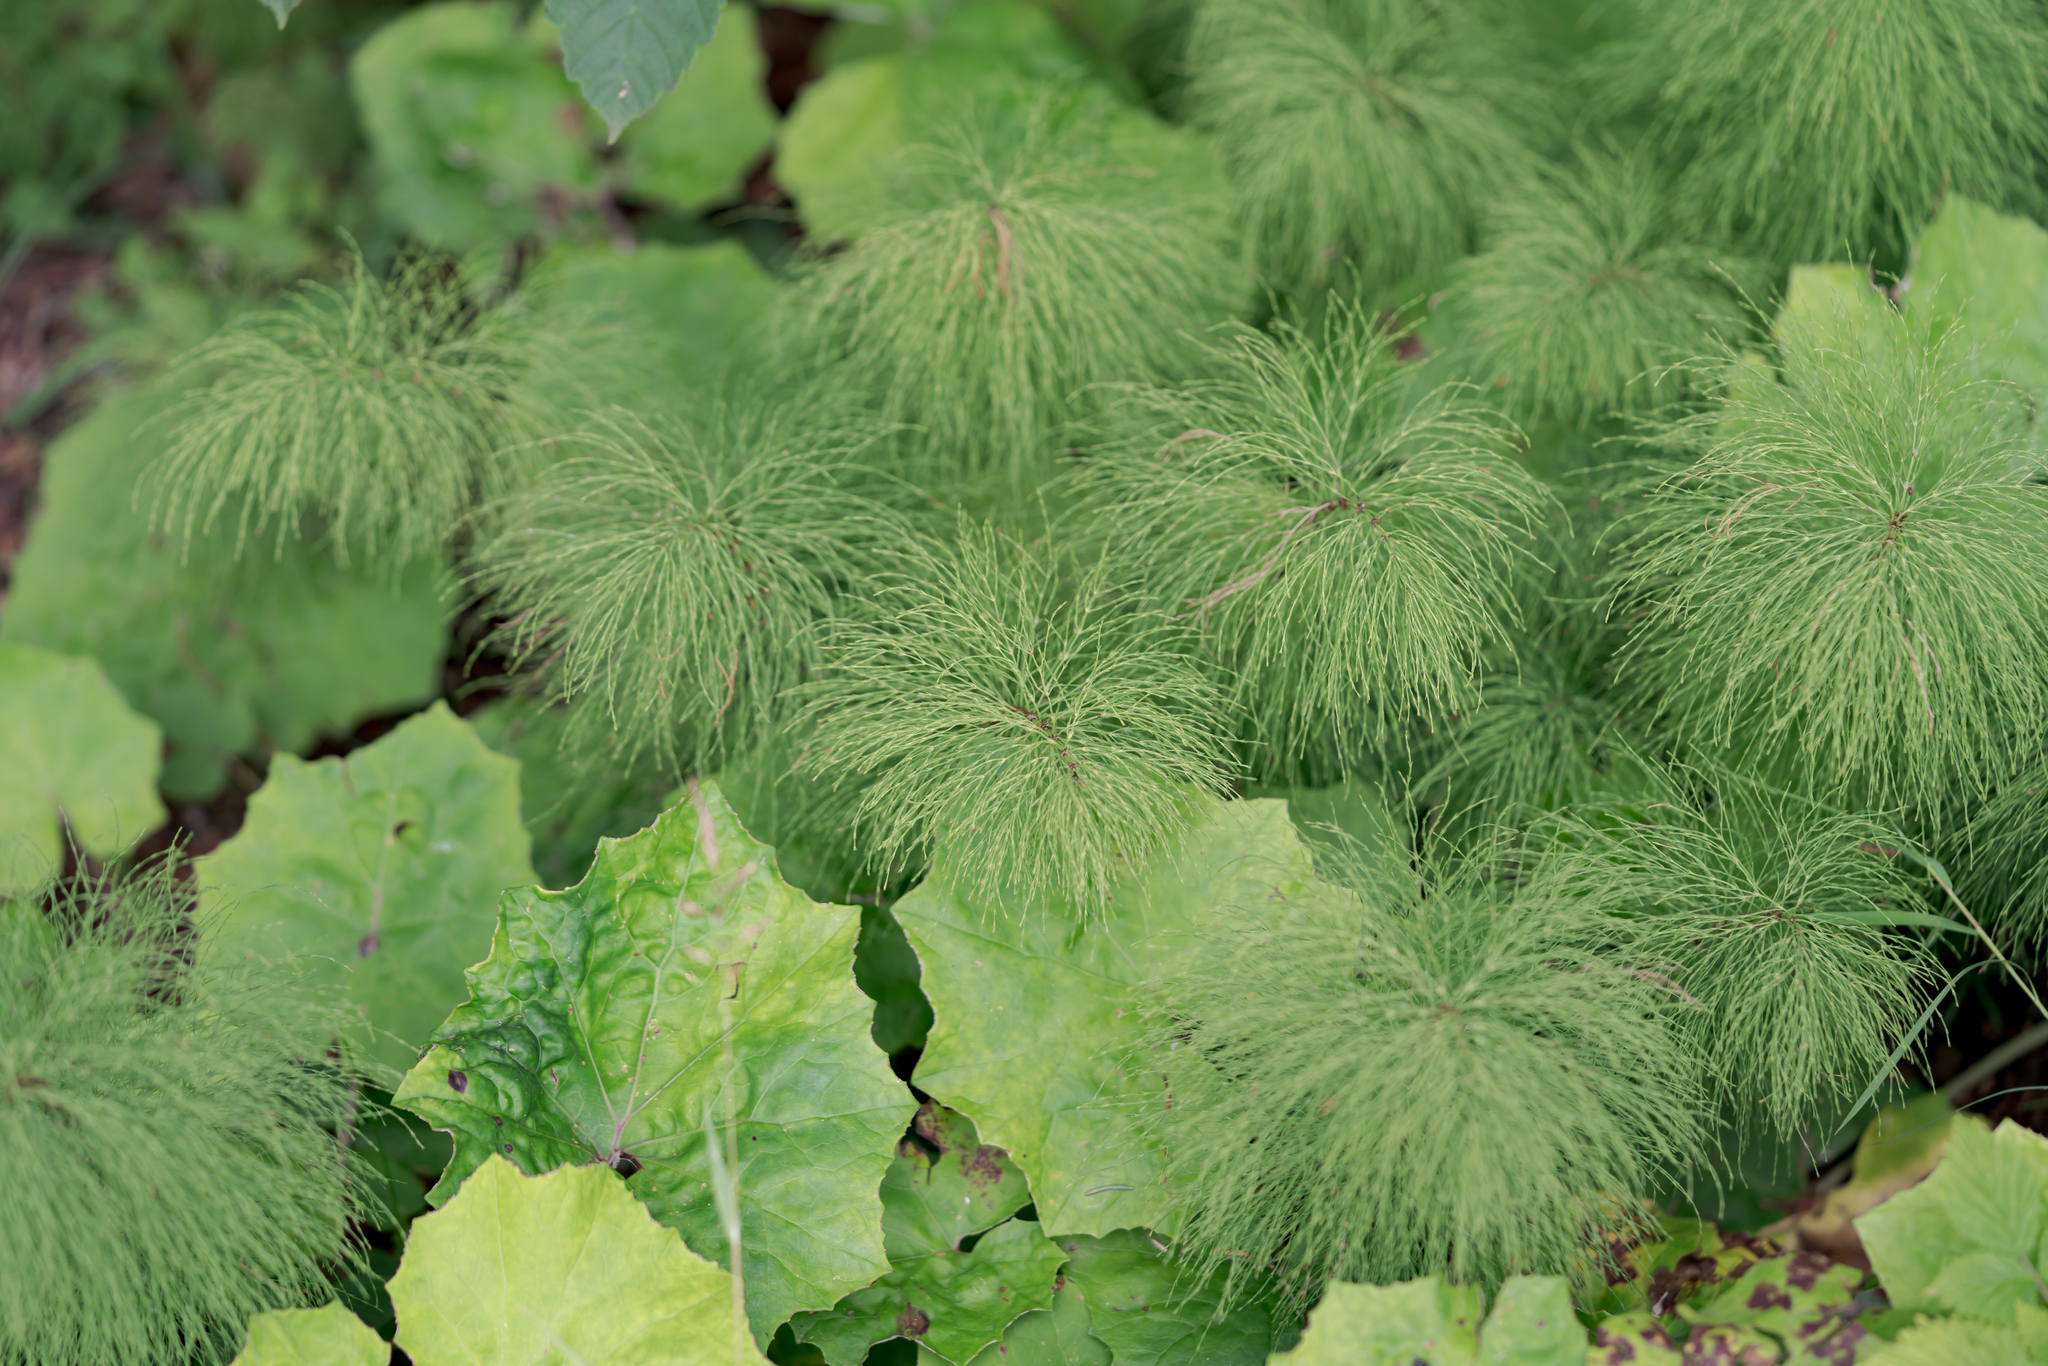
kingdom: Plantae
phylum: Tracheophyta
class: Polypodiopsida
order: Equisetales
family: Equisetaceae
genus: Equisetum
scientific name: Equisetum sylvaticum
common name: Wood horsetail
